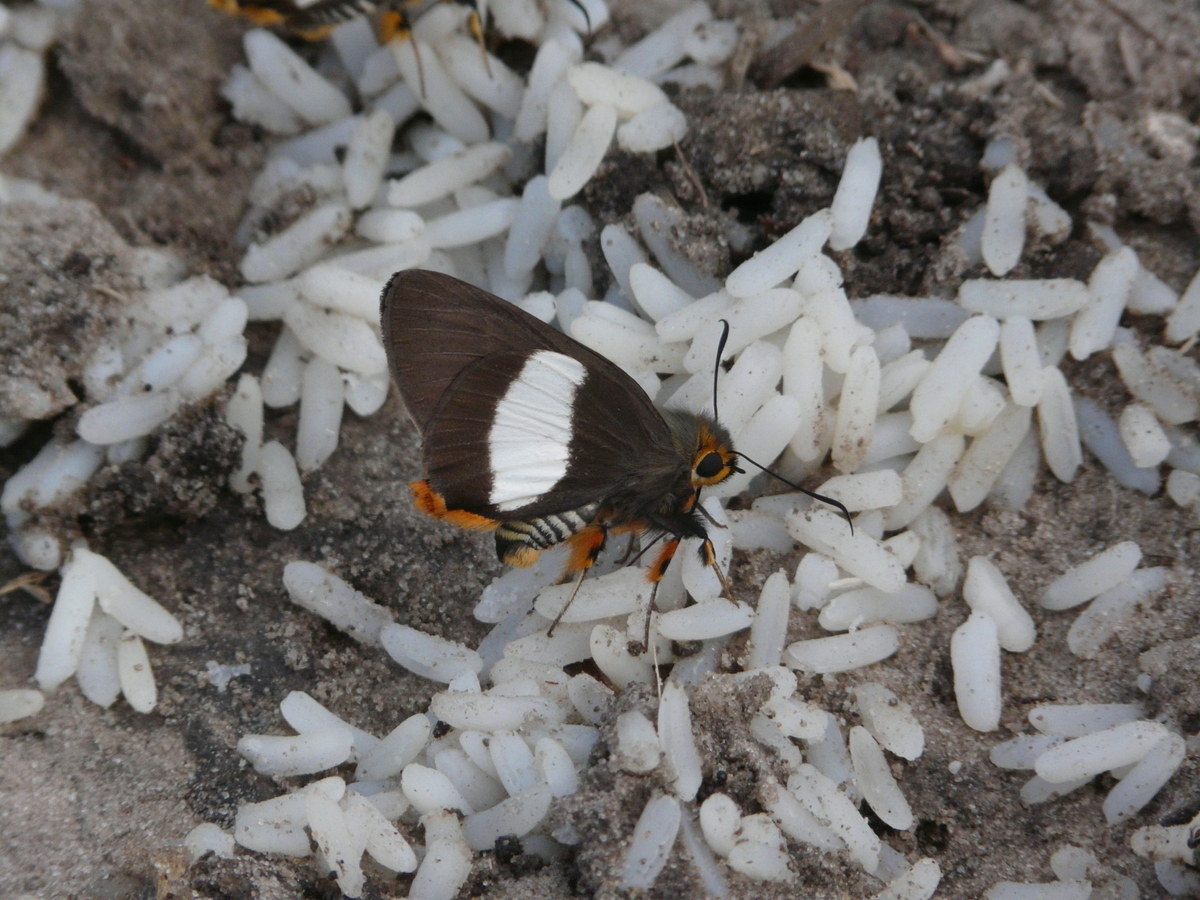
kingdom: Animalia
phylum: Arthropoda
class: Insecta
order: Lepidoptera
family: Hesperiidae
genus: Coeliades
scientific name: Coeliades forestan
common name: Striped policeman
